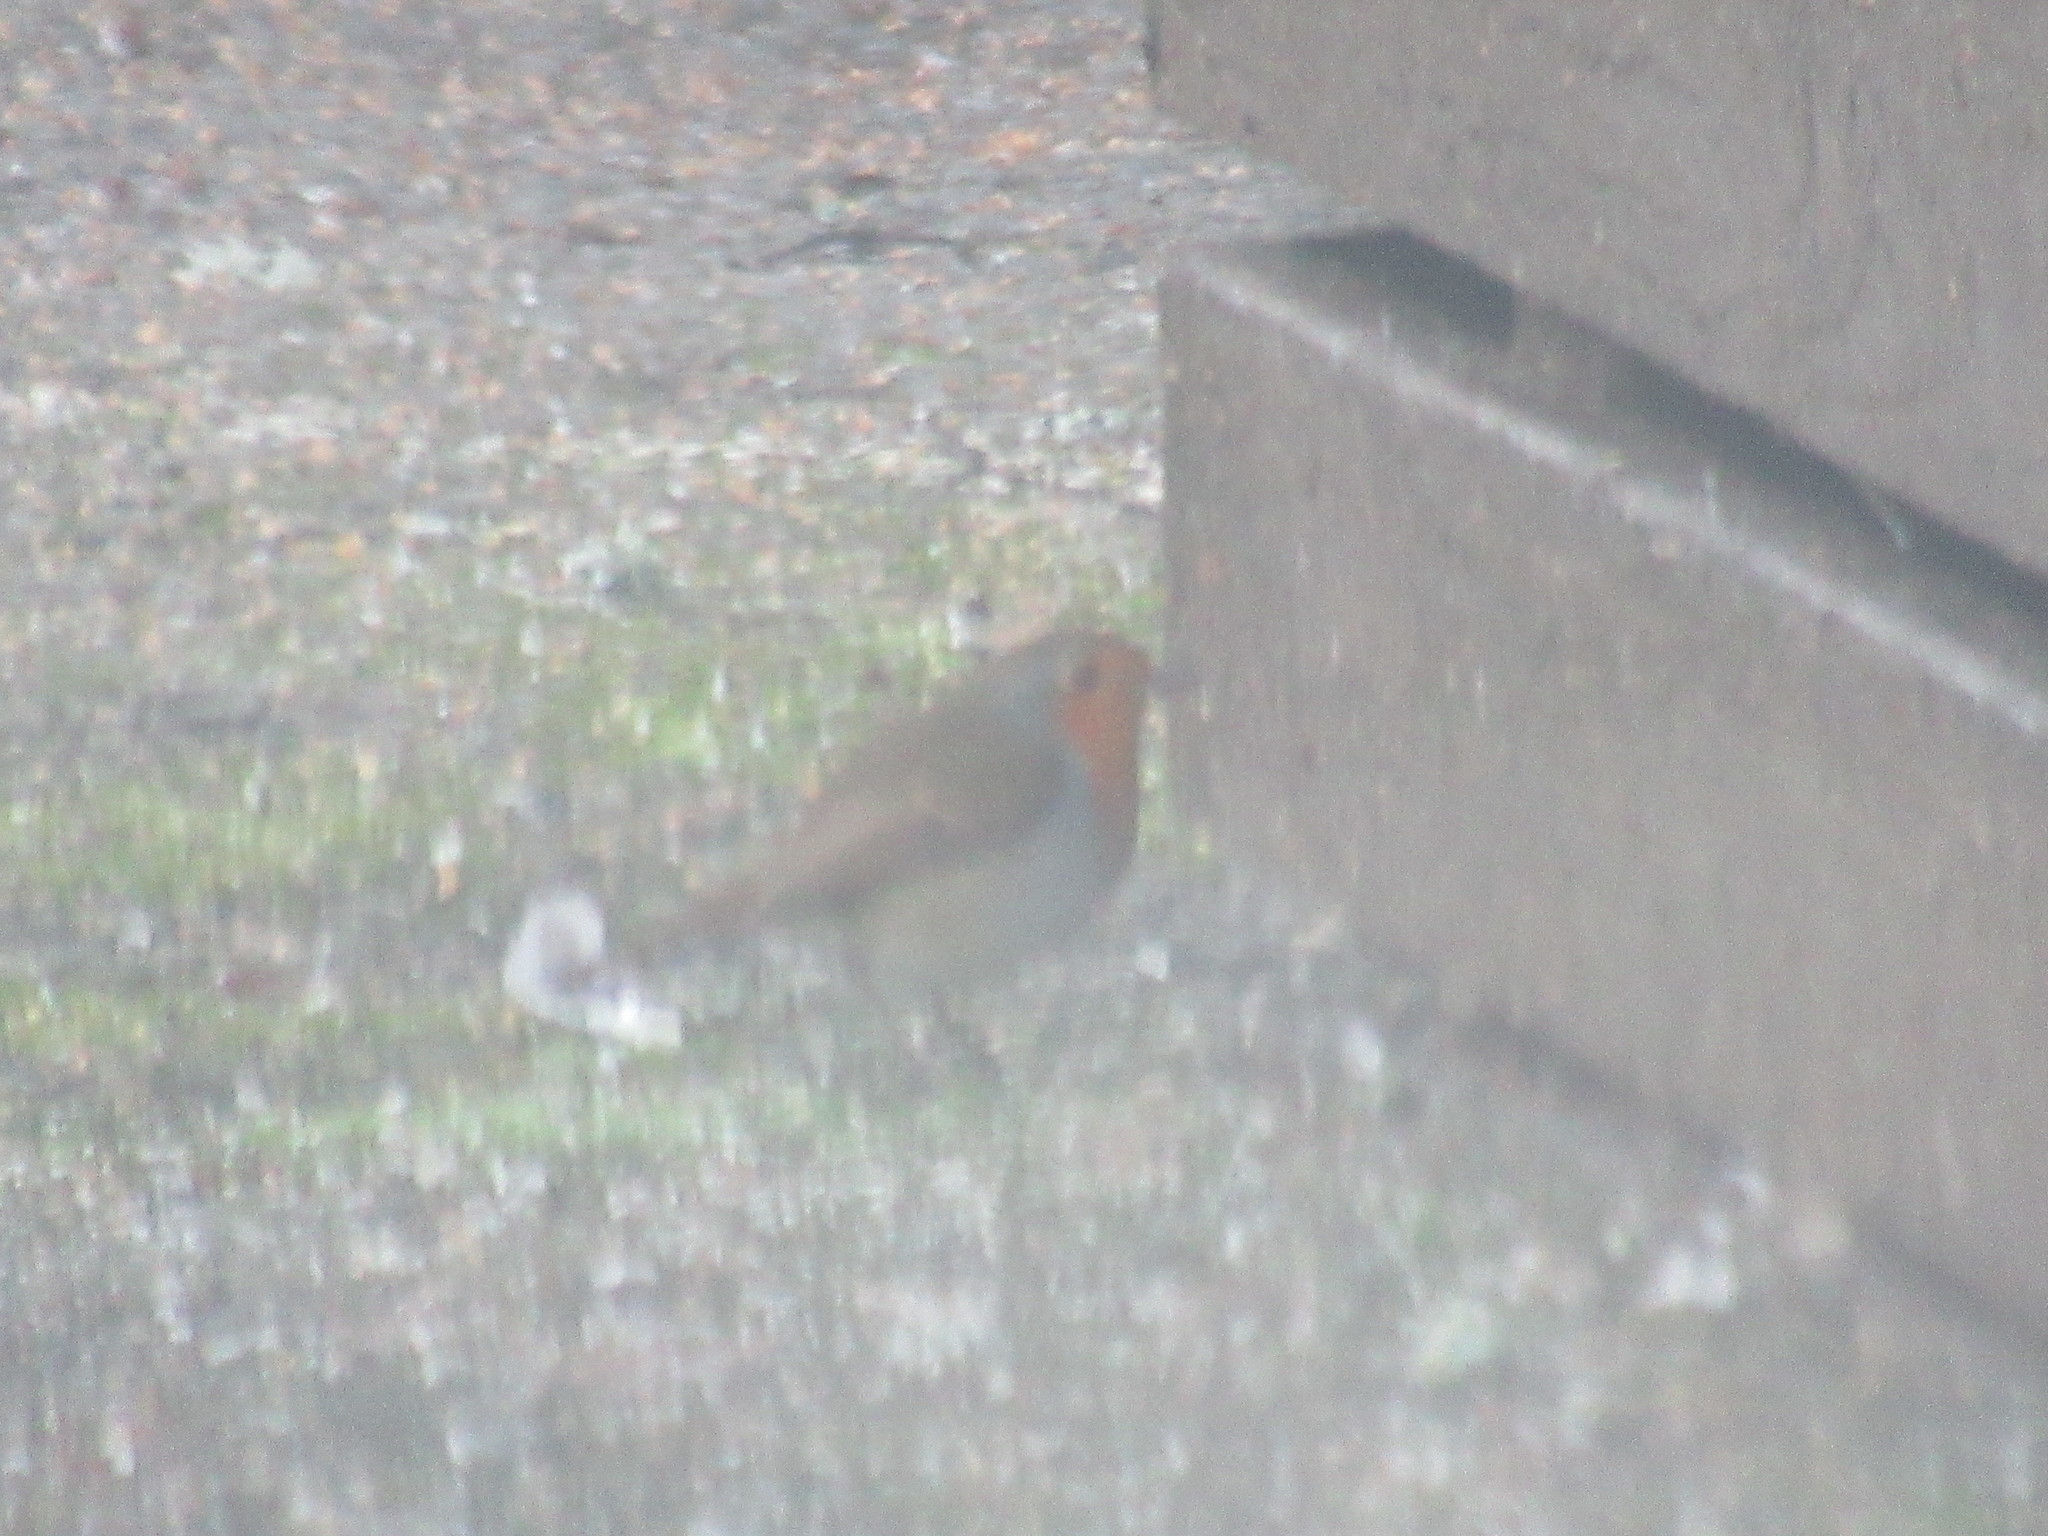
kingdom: Animalia
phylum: Chordata
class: Aves
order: Passeriformes
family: Muscicapidae
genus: Erithacus
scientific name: Erithacus rubecula
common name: European robin
